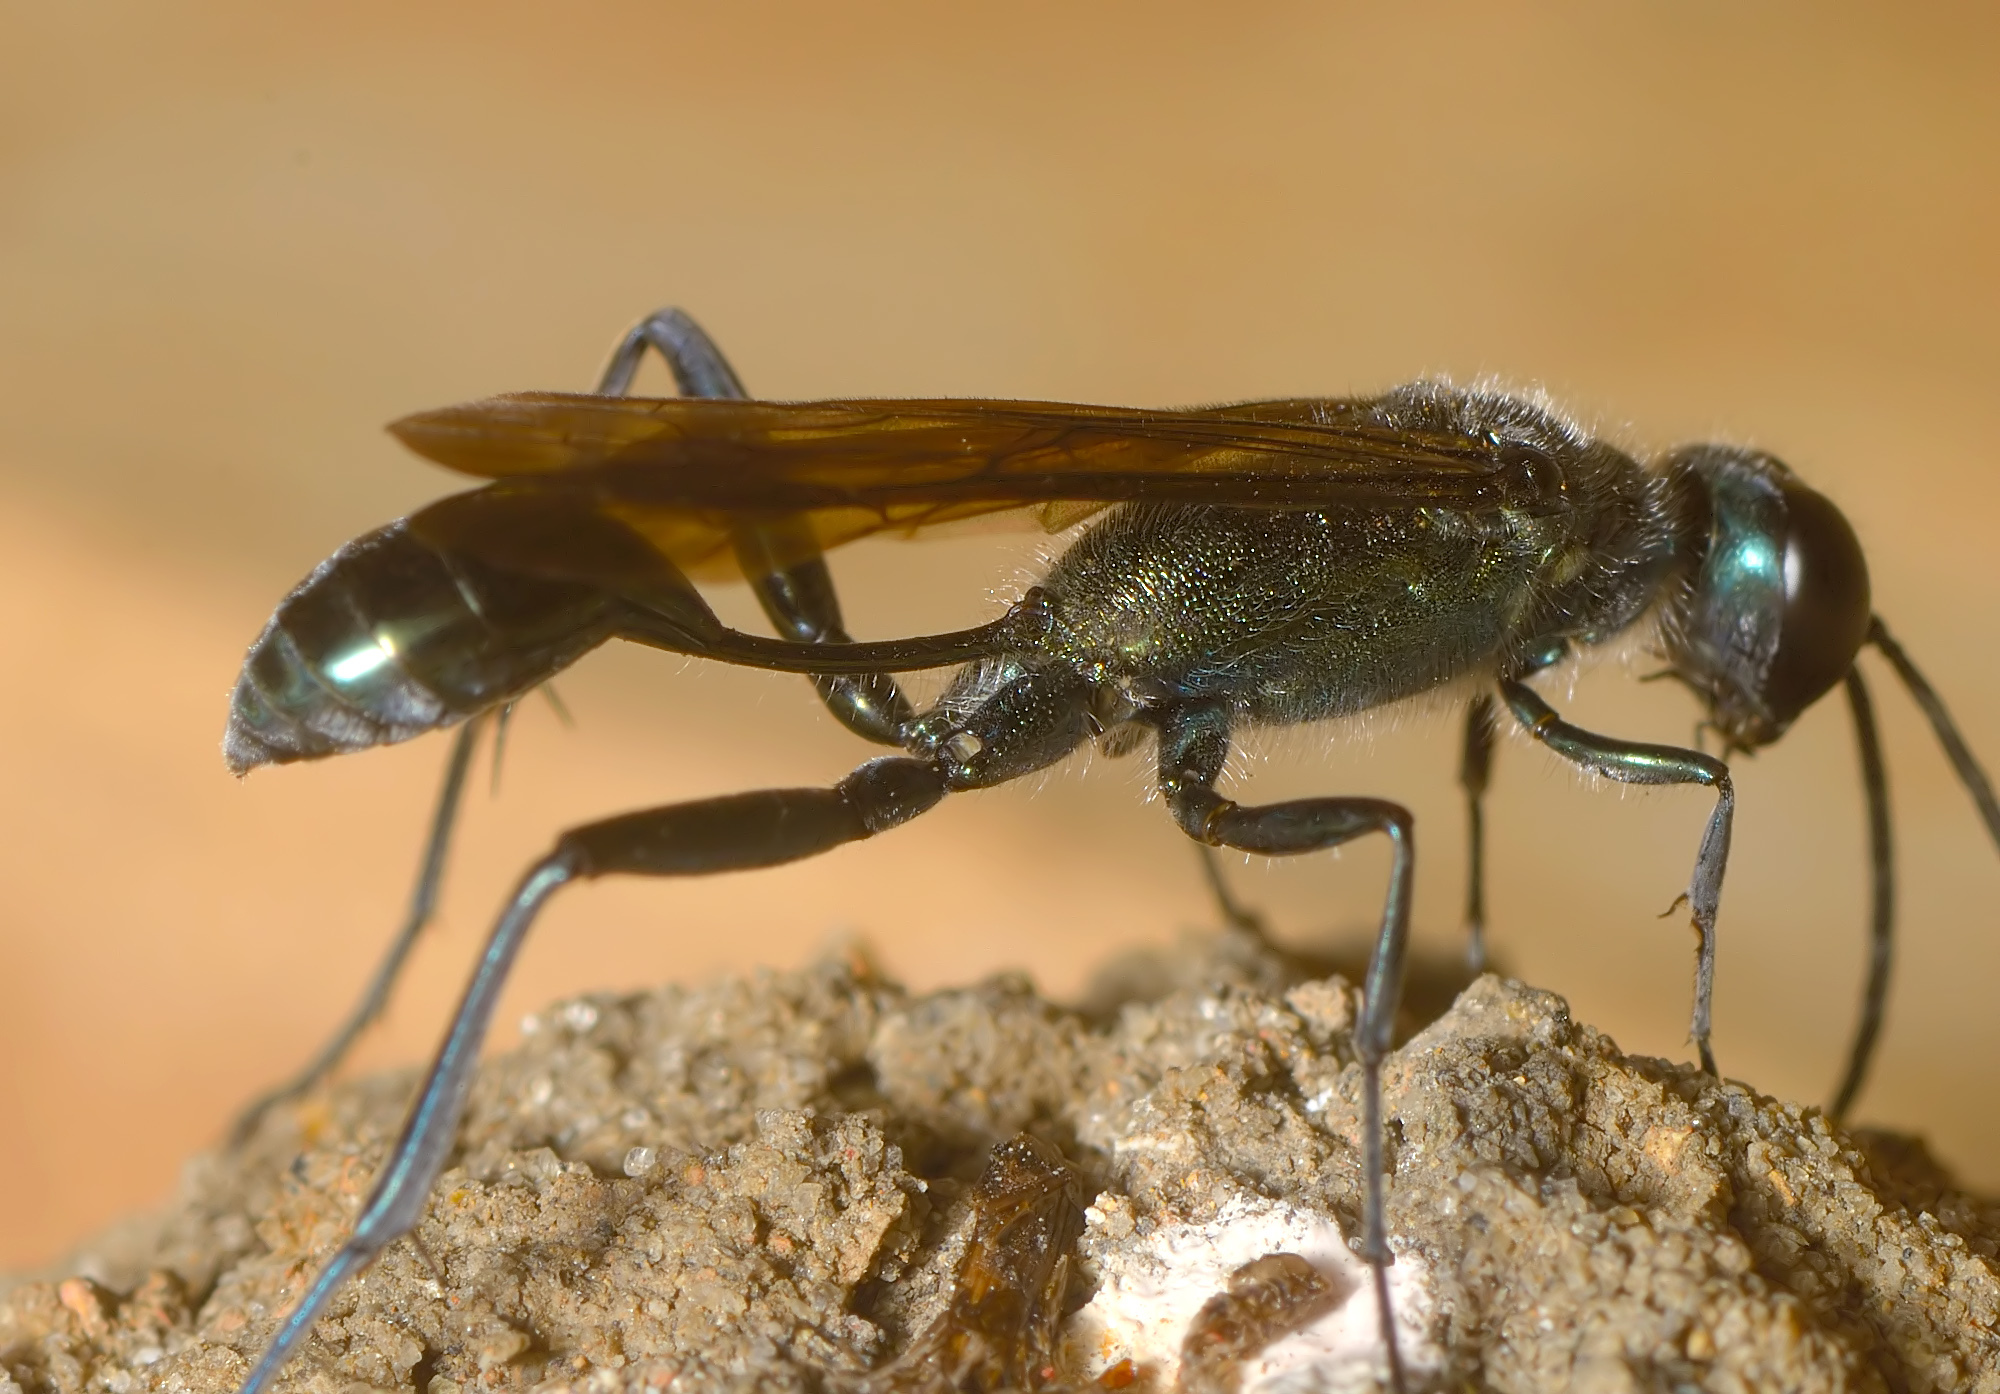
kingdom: Animalia
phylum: Arthropoda
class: Insecta
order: Hymenoptera
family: Sphecidae
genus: Chalybion
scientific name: Chalybion bengalense
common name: Mud dauber
